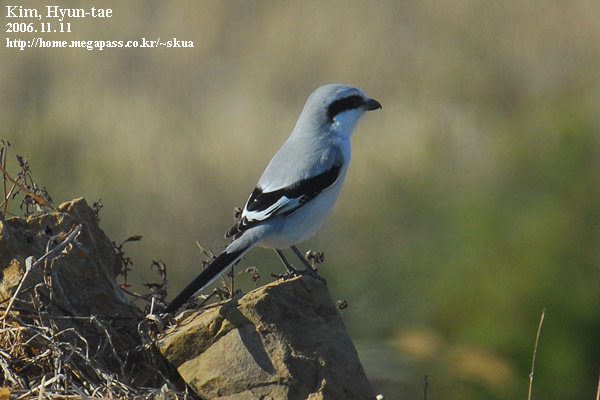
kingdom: Animalia
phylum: Chordata
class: Aves
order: Passeriformes
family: Laniidae
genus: Lanius
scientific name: Lanius sphenocercus
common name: Chinese grey shrike
